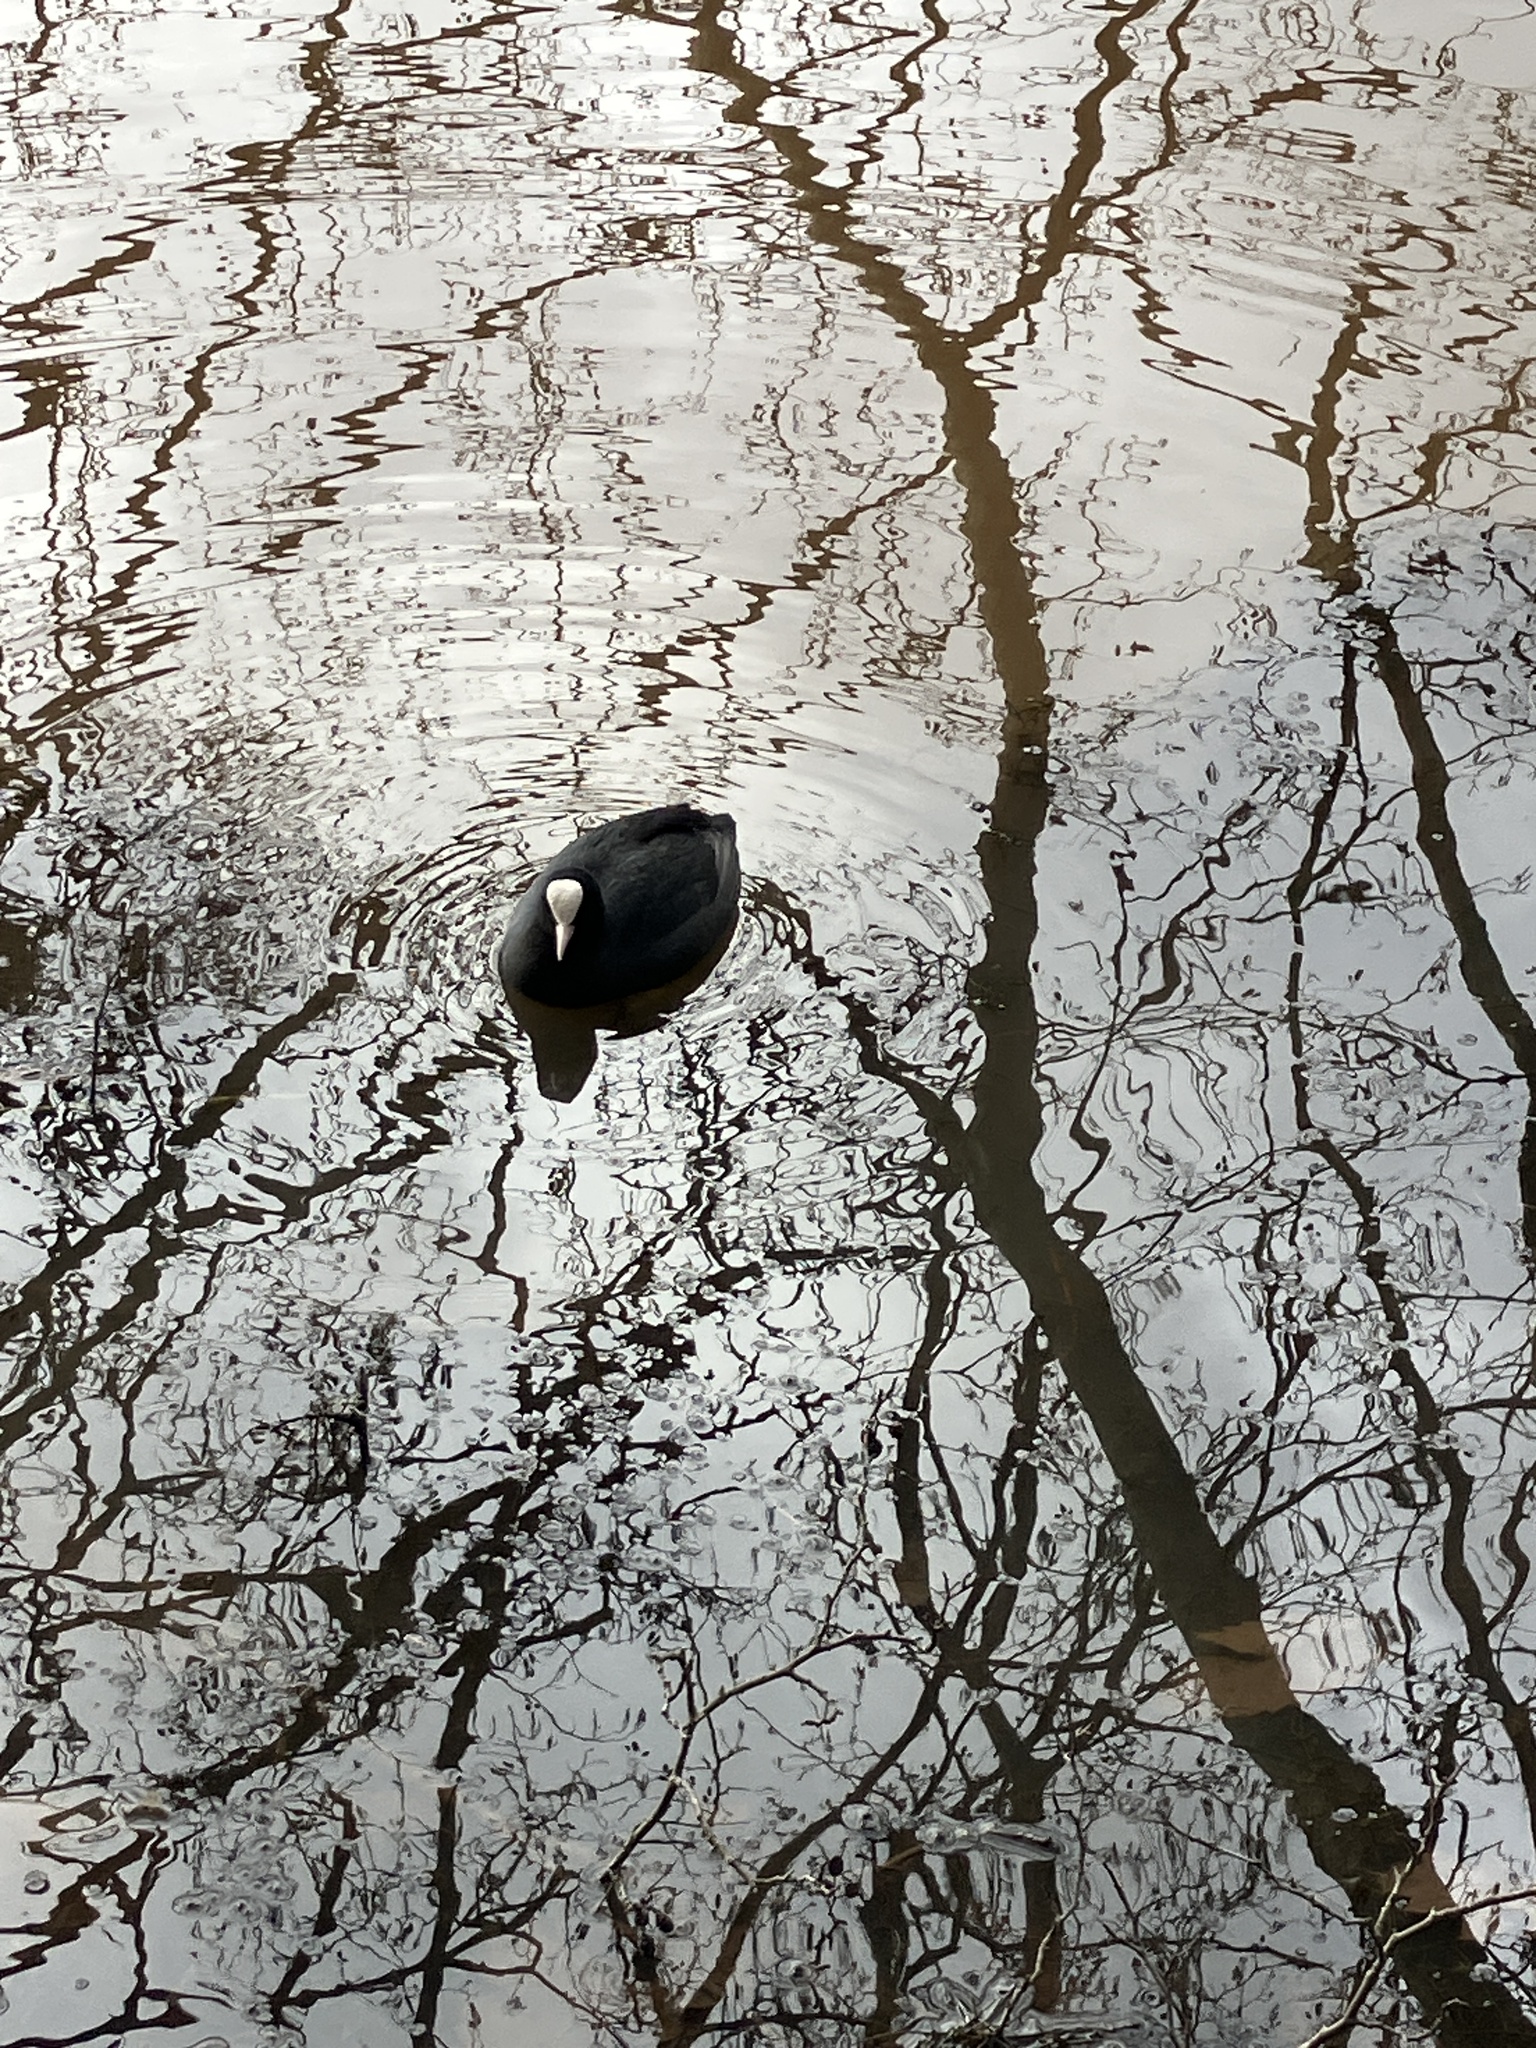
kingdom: Animalia
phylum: Chordata
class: Aves
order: Gruiformes
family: Rallidae
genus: Fulica
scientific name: Fulica atra
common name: Eurasian coot
